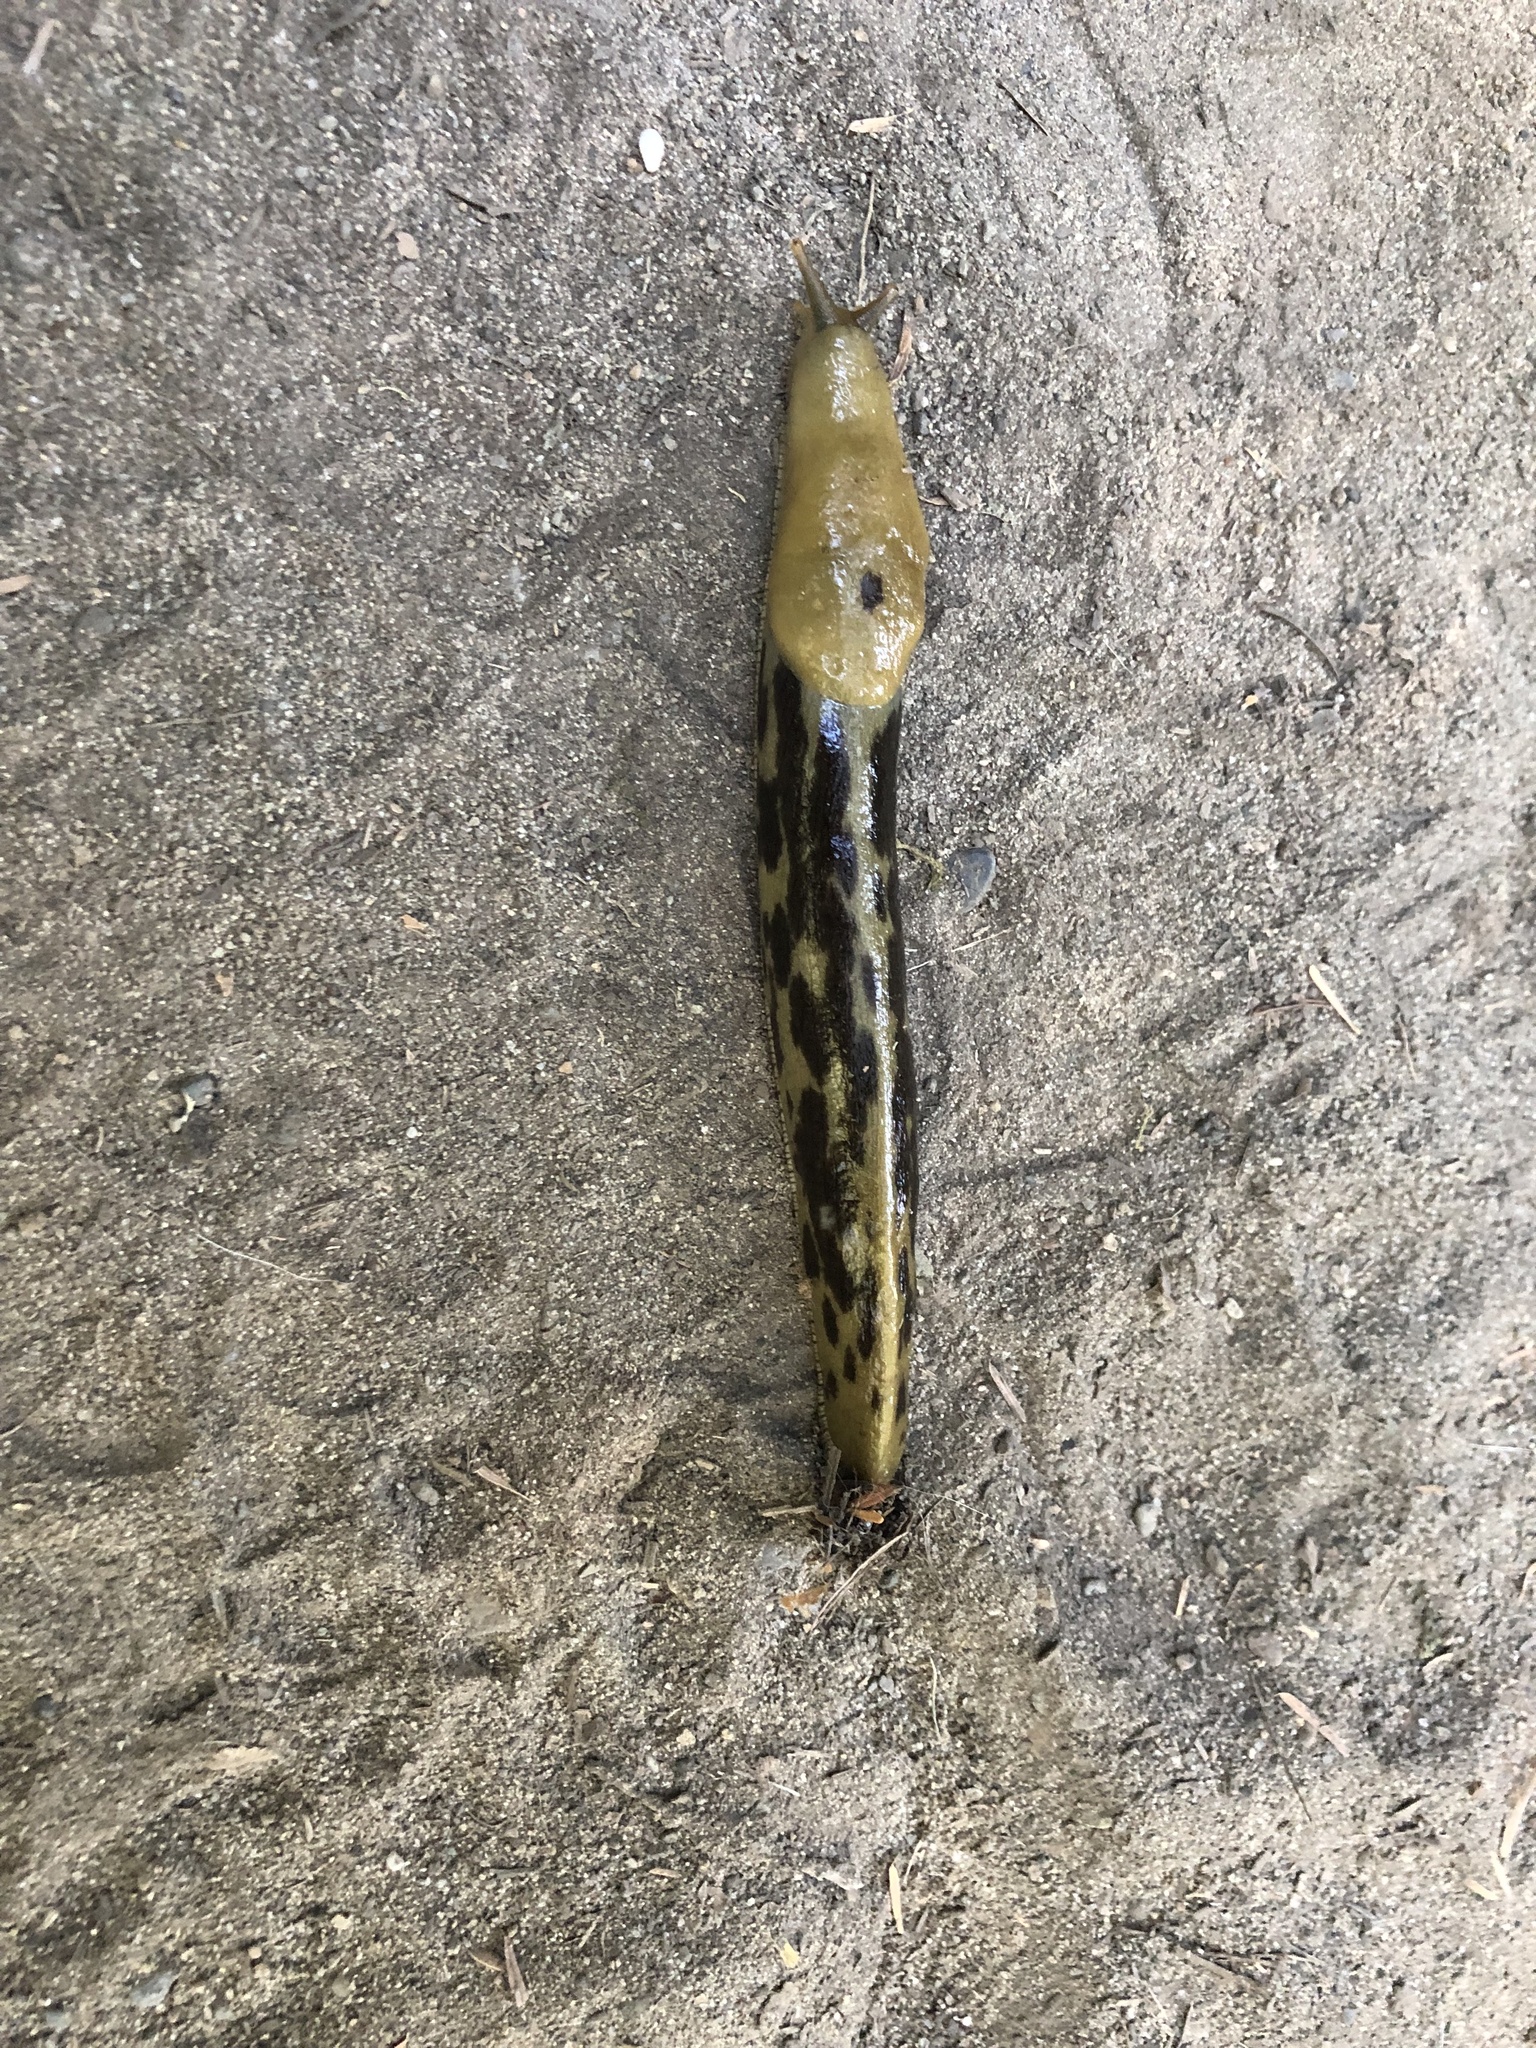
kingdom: Animalia
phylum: Mollusca
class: Gastropoda
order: Stylommatophora
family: Ariolimacidae
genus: Ariolimax
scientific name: Ariolimax columbianus
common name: Pacific banana slug
